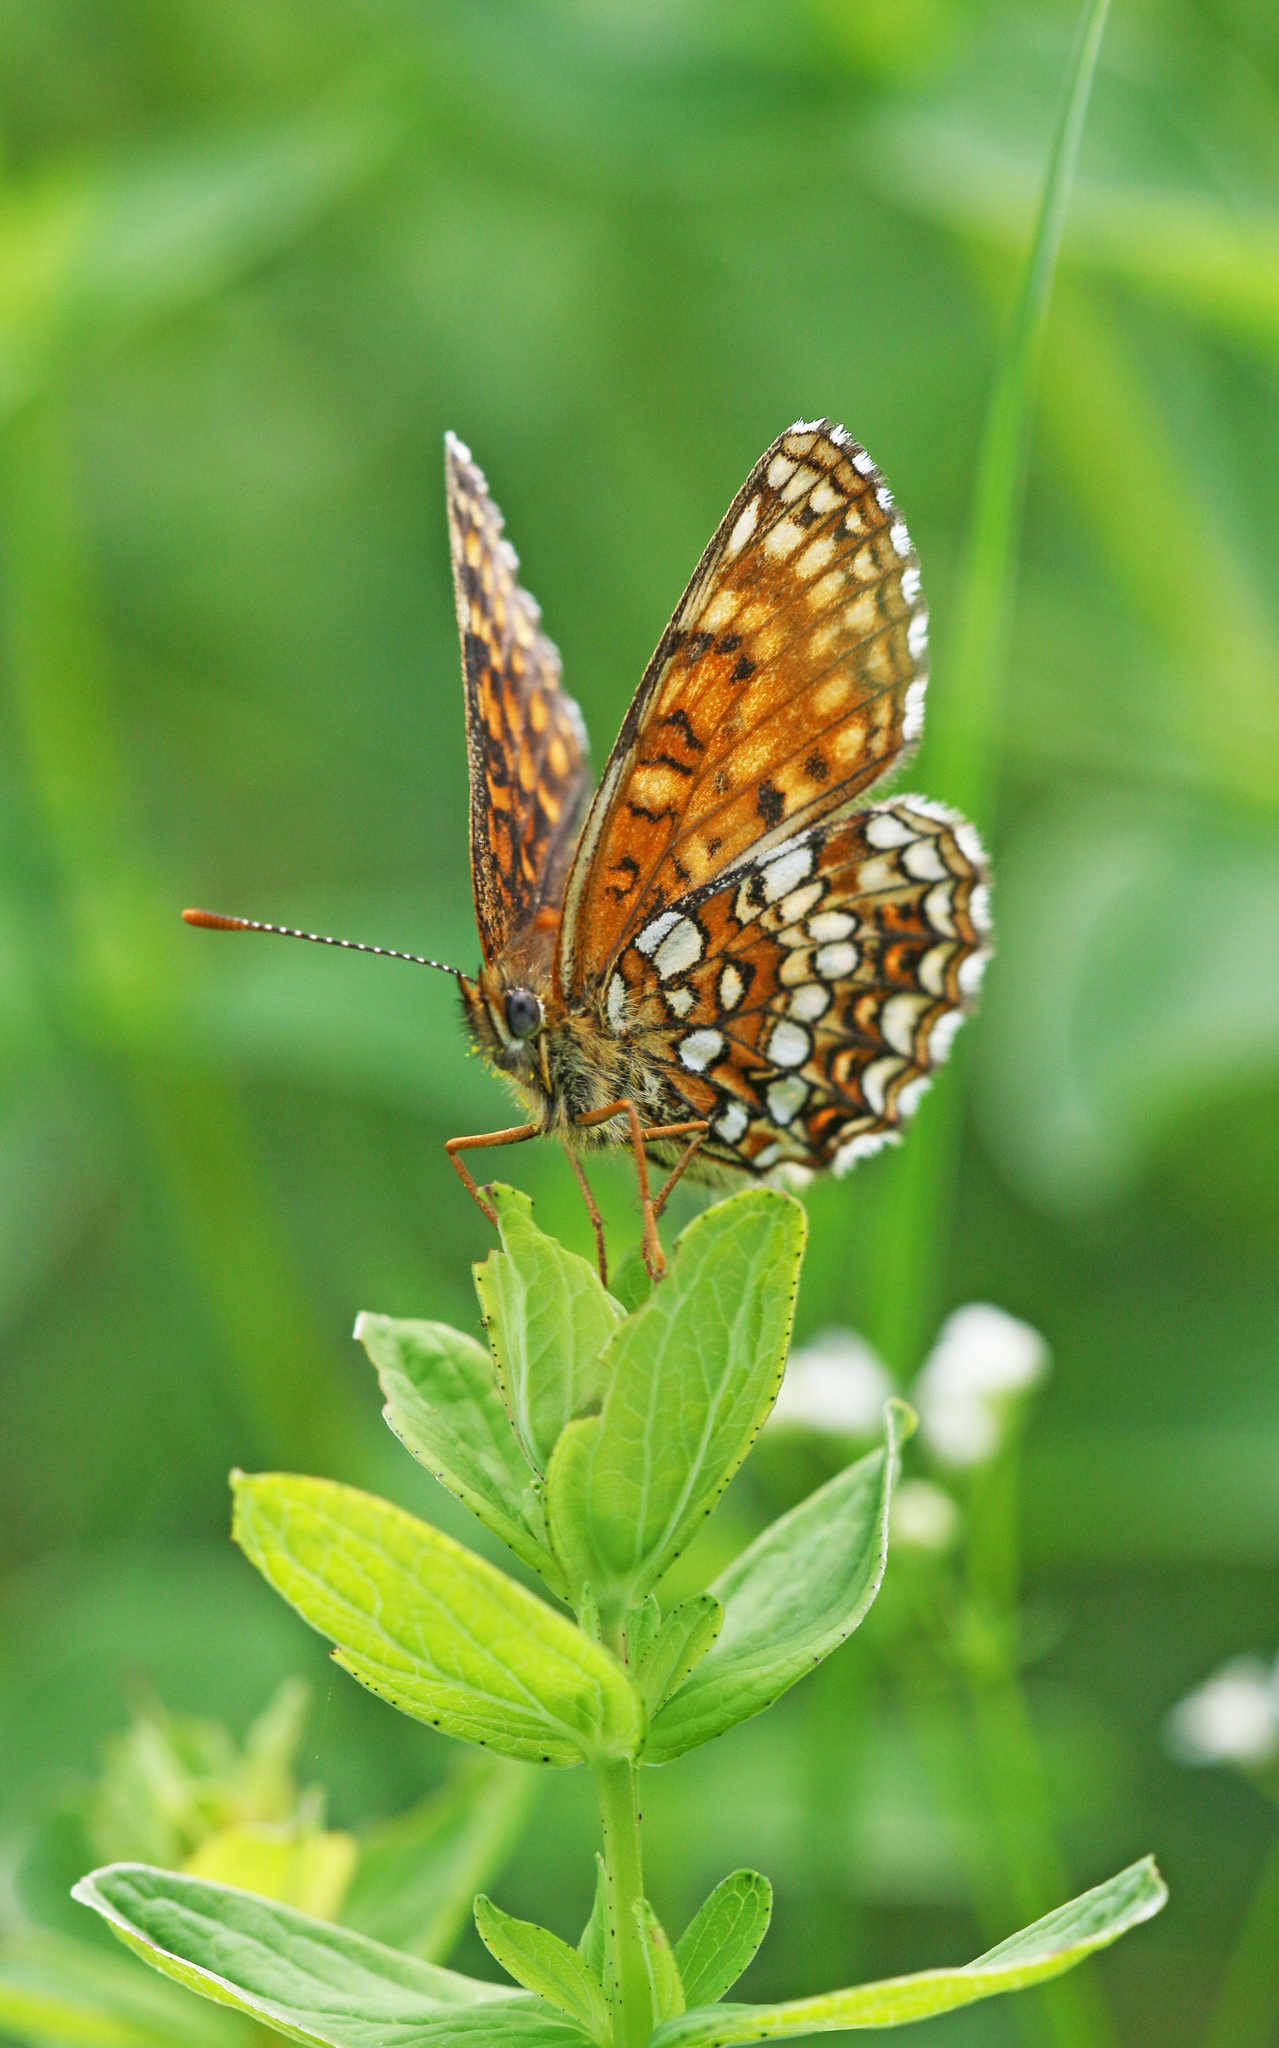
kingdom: Animalia
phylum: Arthropoda
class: Insecta
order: Lepidoptera
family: Nymphalidae
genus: Melitaea
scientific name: Melitaea diamina
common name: False heath fritillary
